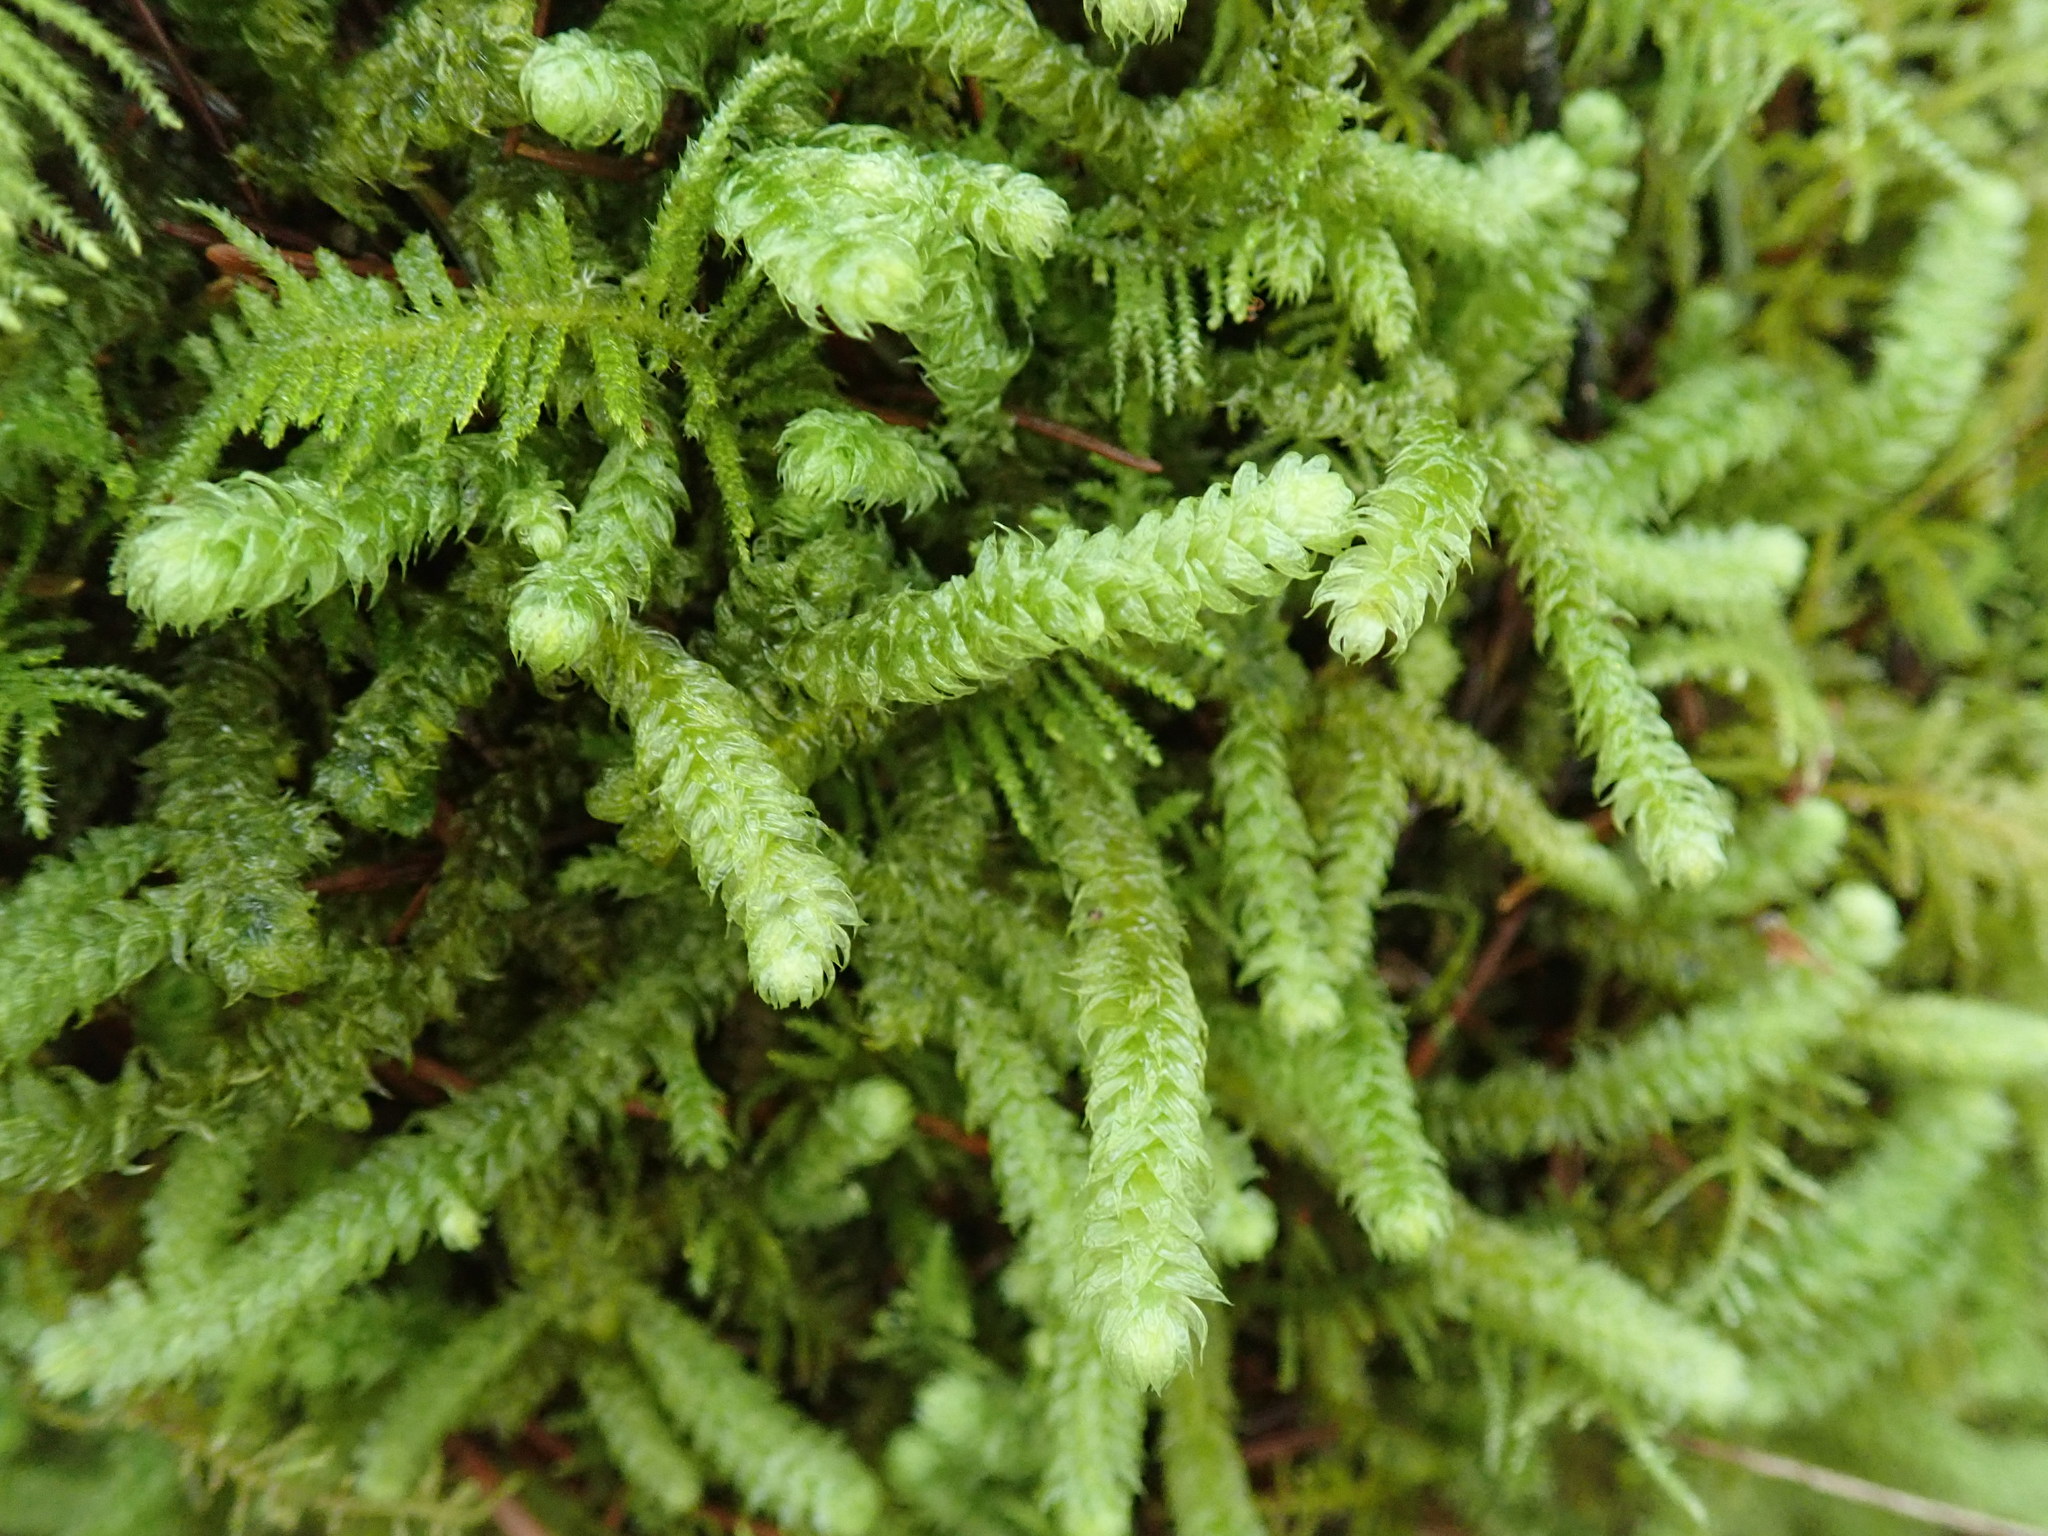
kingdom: Plantae
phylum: Bryophyta
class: Bryopsida
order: Hypnales
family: Hylocomiaceae
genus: Rhytidiopsis
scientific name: Rhytidiopsis robusta
